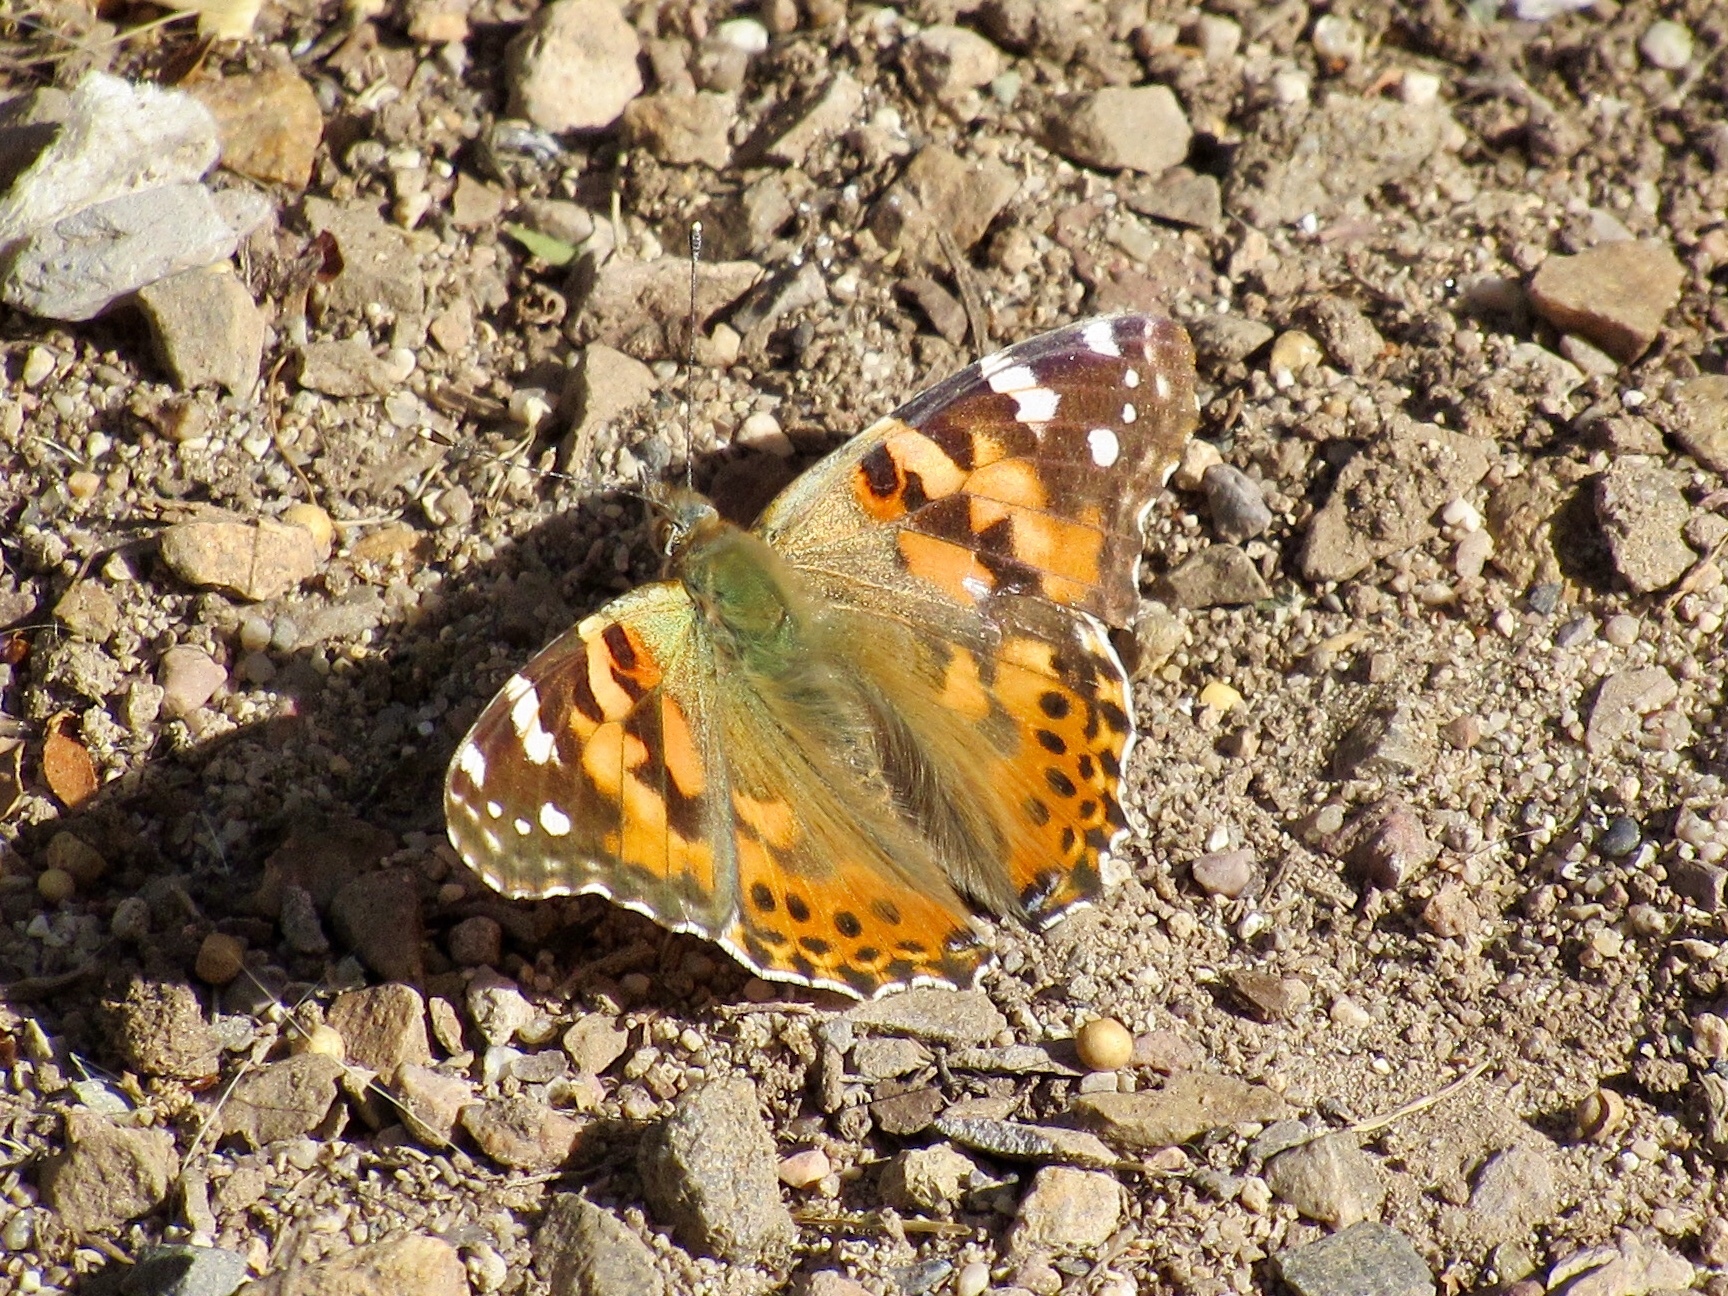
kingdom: Animalia
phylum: Arthropoda
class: Insecta
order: Lepidoptera
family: Nymphalidae
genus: Vanessa
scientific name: Vanessa cardui
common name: Painted lady
